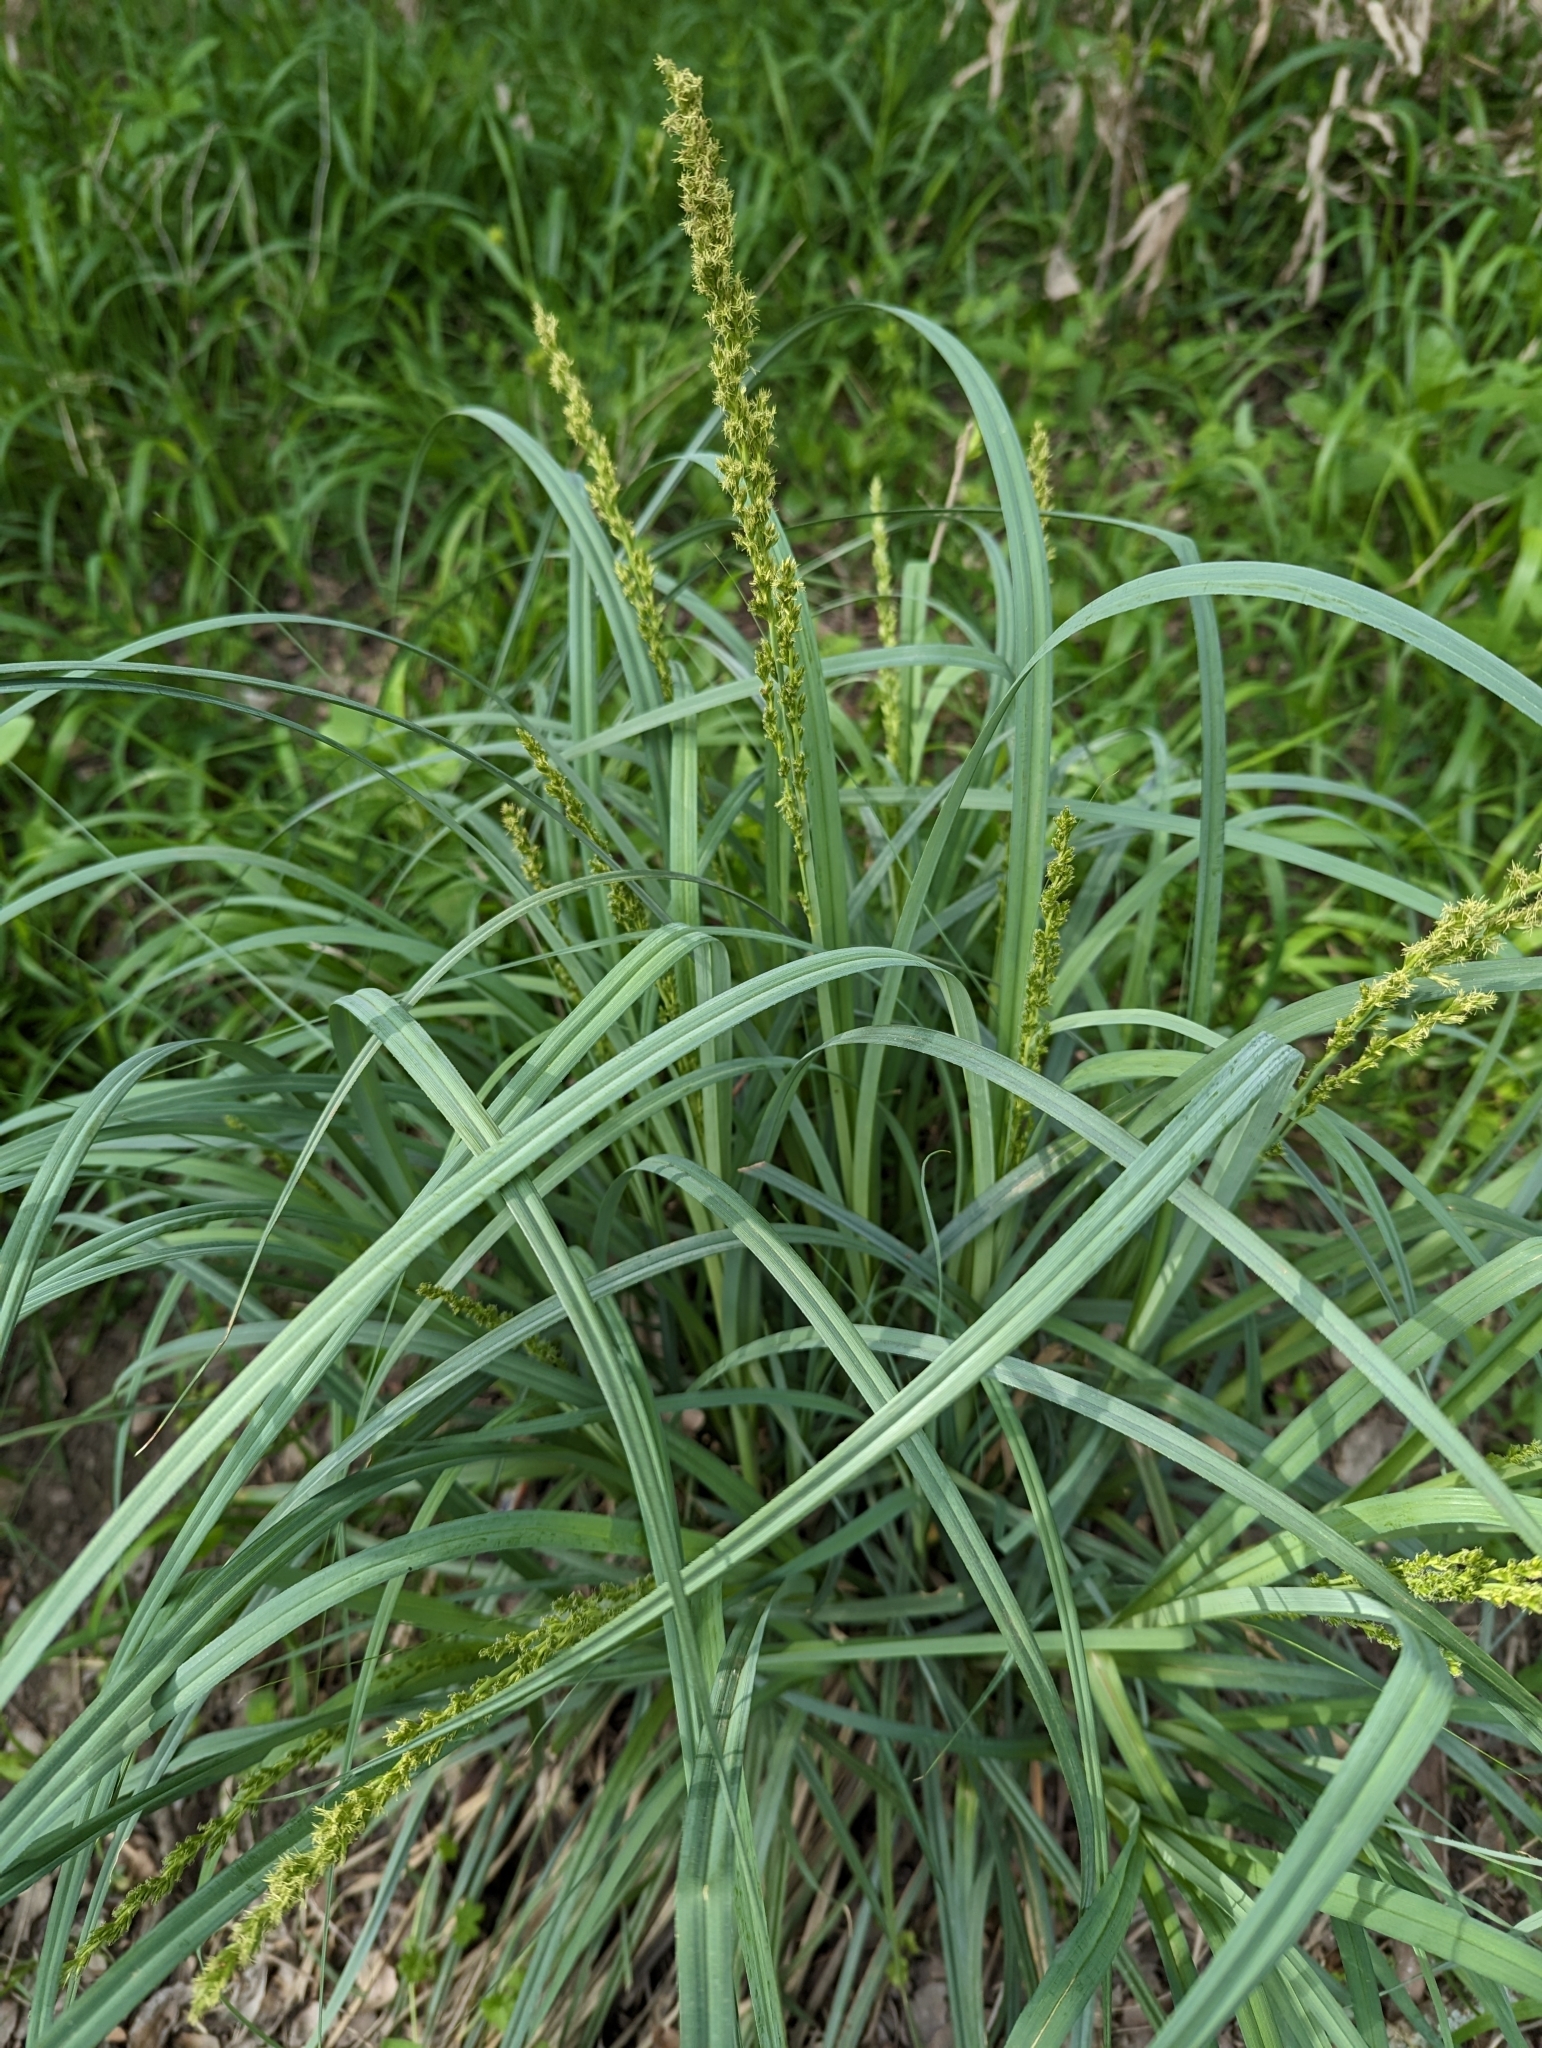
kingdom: Plantae
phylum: Tracheophyta
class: Liliopsida
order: Poales
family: Cyperaceae
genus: Carex
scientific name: Carex crus-corvi
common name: Crow-spur sedge
